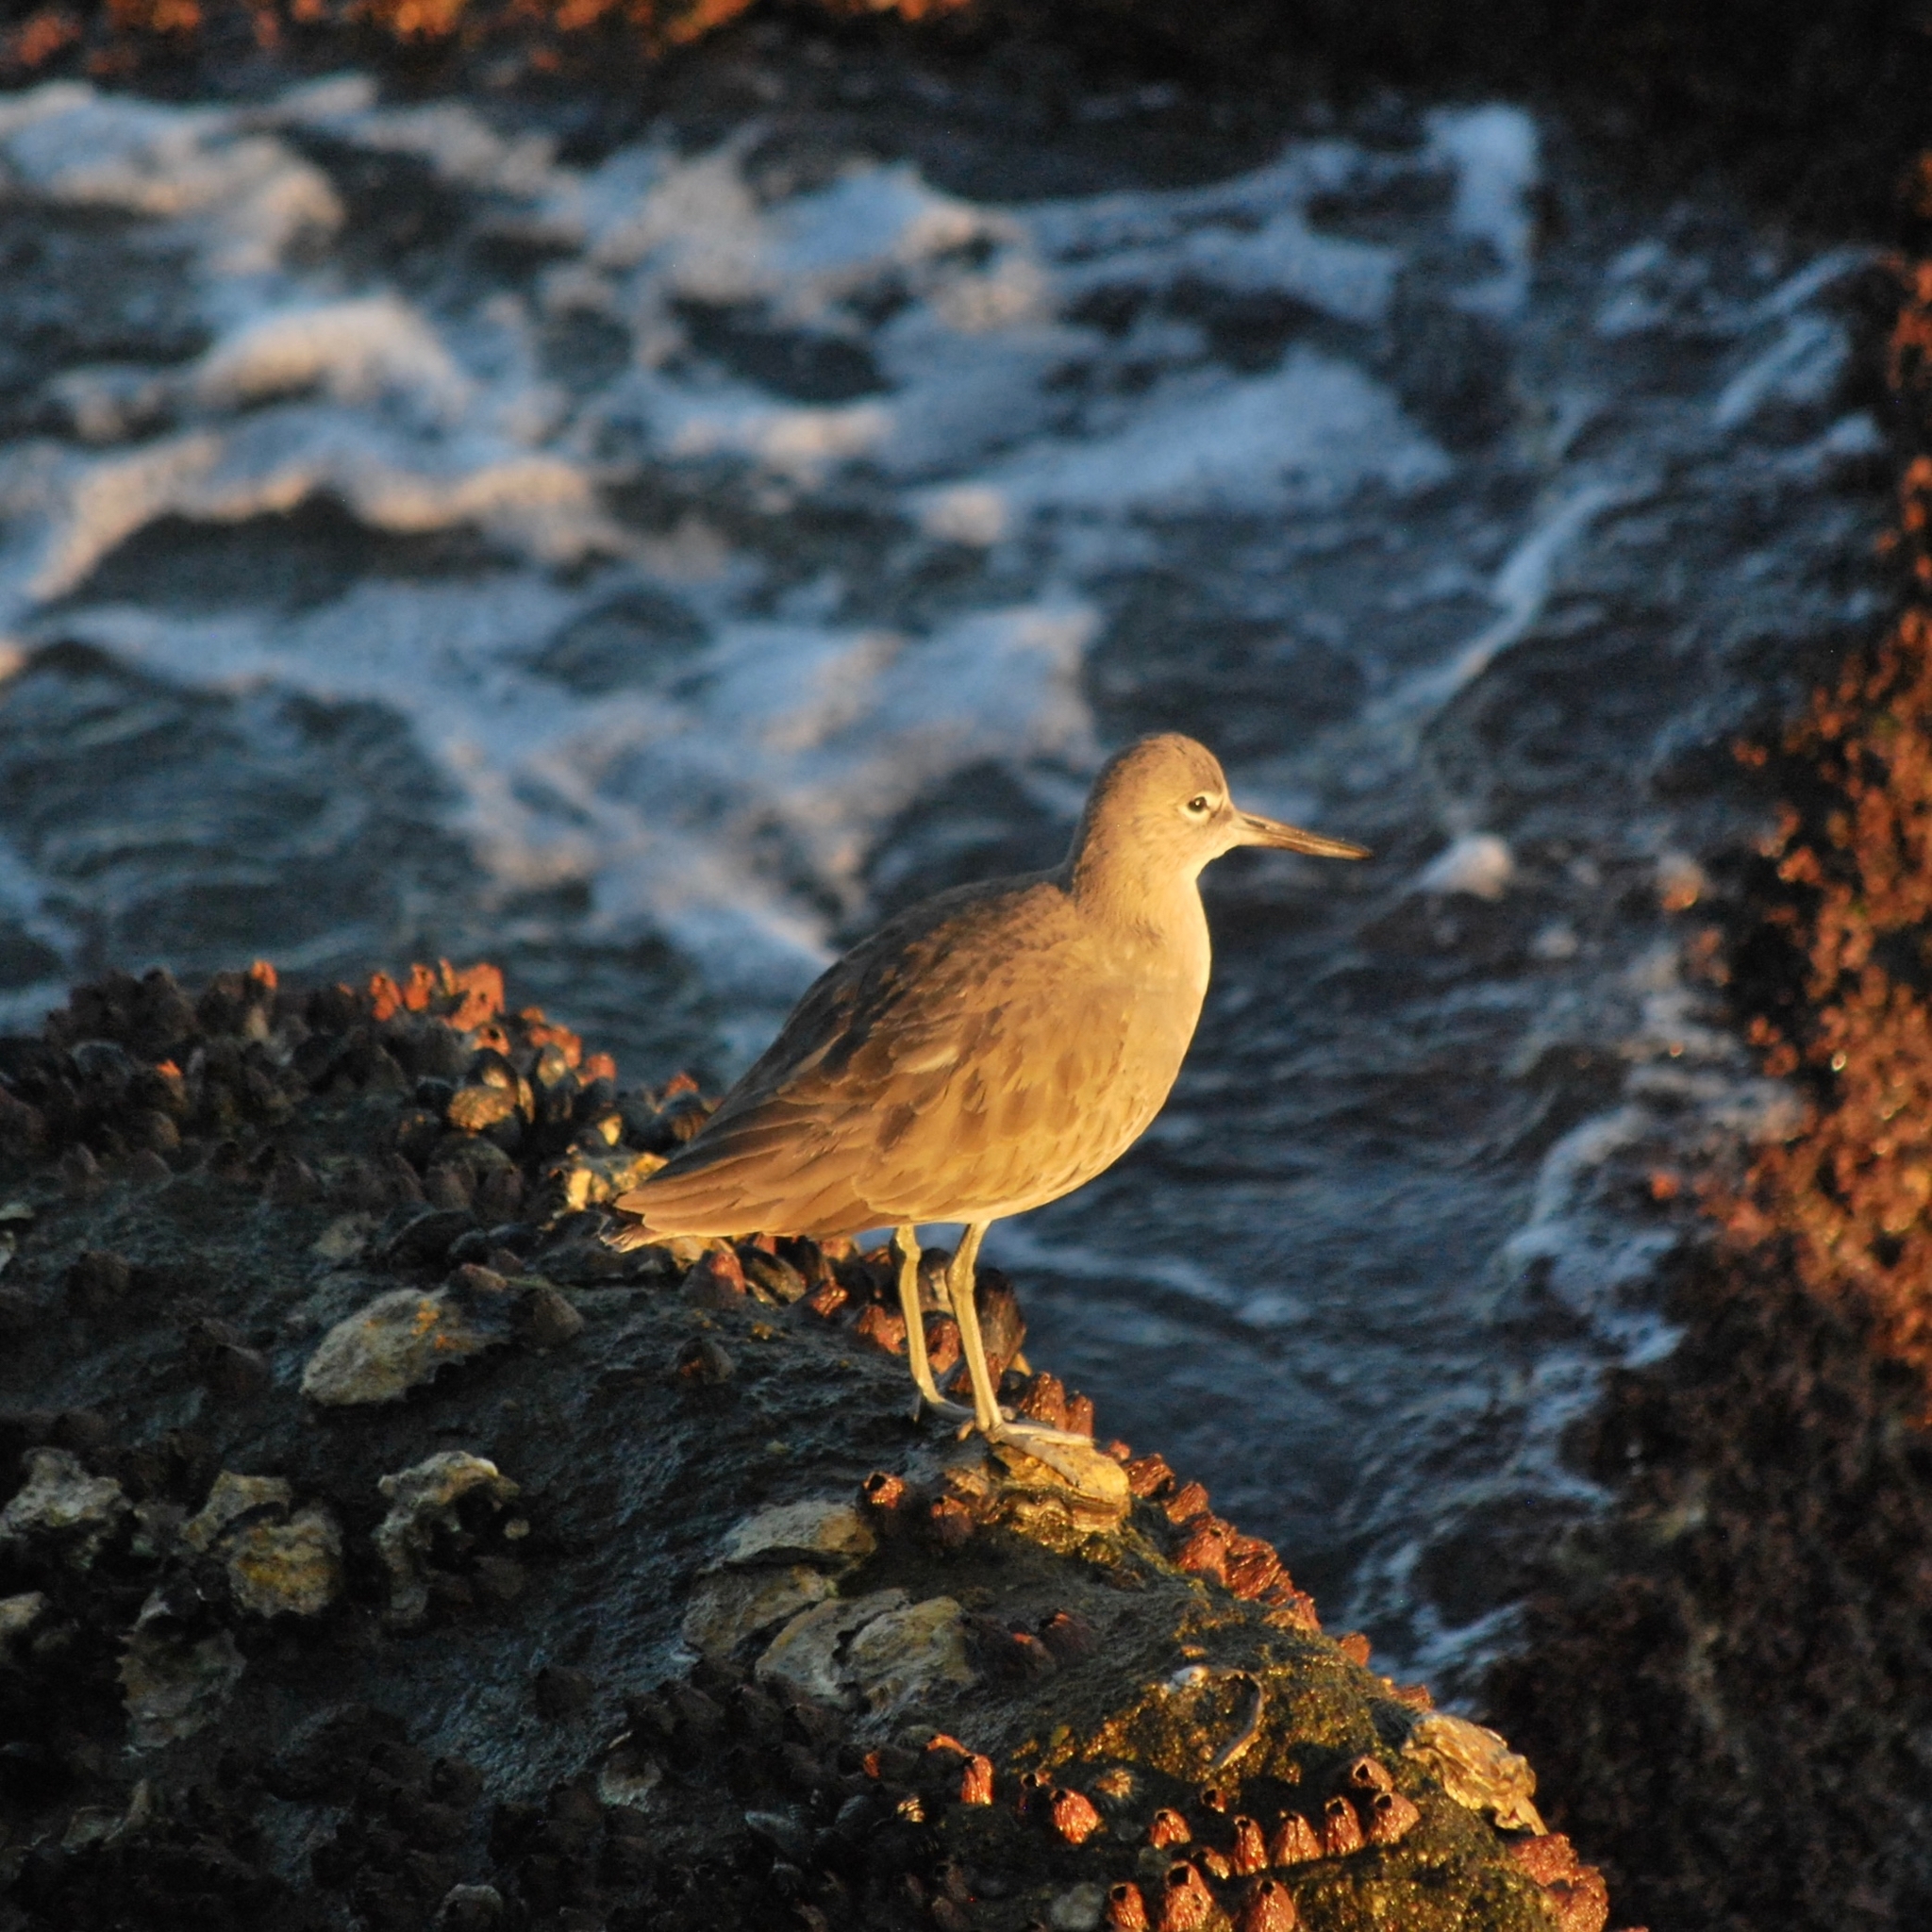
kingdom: Animalia
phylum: Chordata
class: Aves
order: Charadriiformes
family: Scolopacidae
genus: Tringa
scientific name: Tringa semipalmata
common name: Willet
